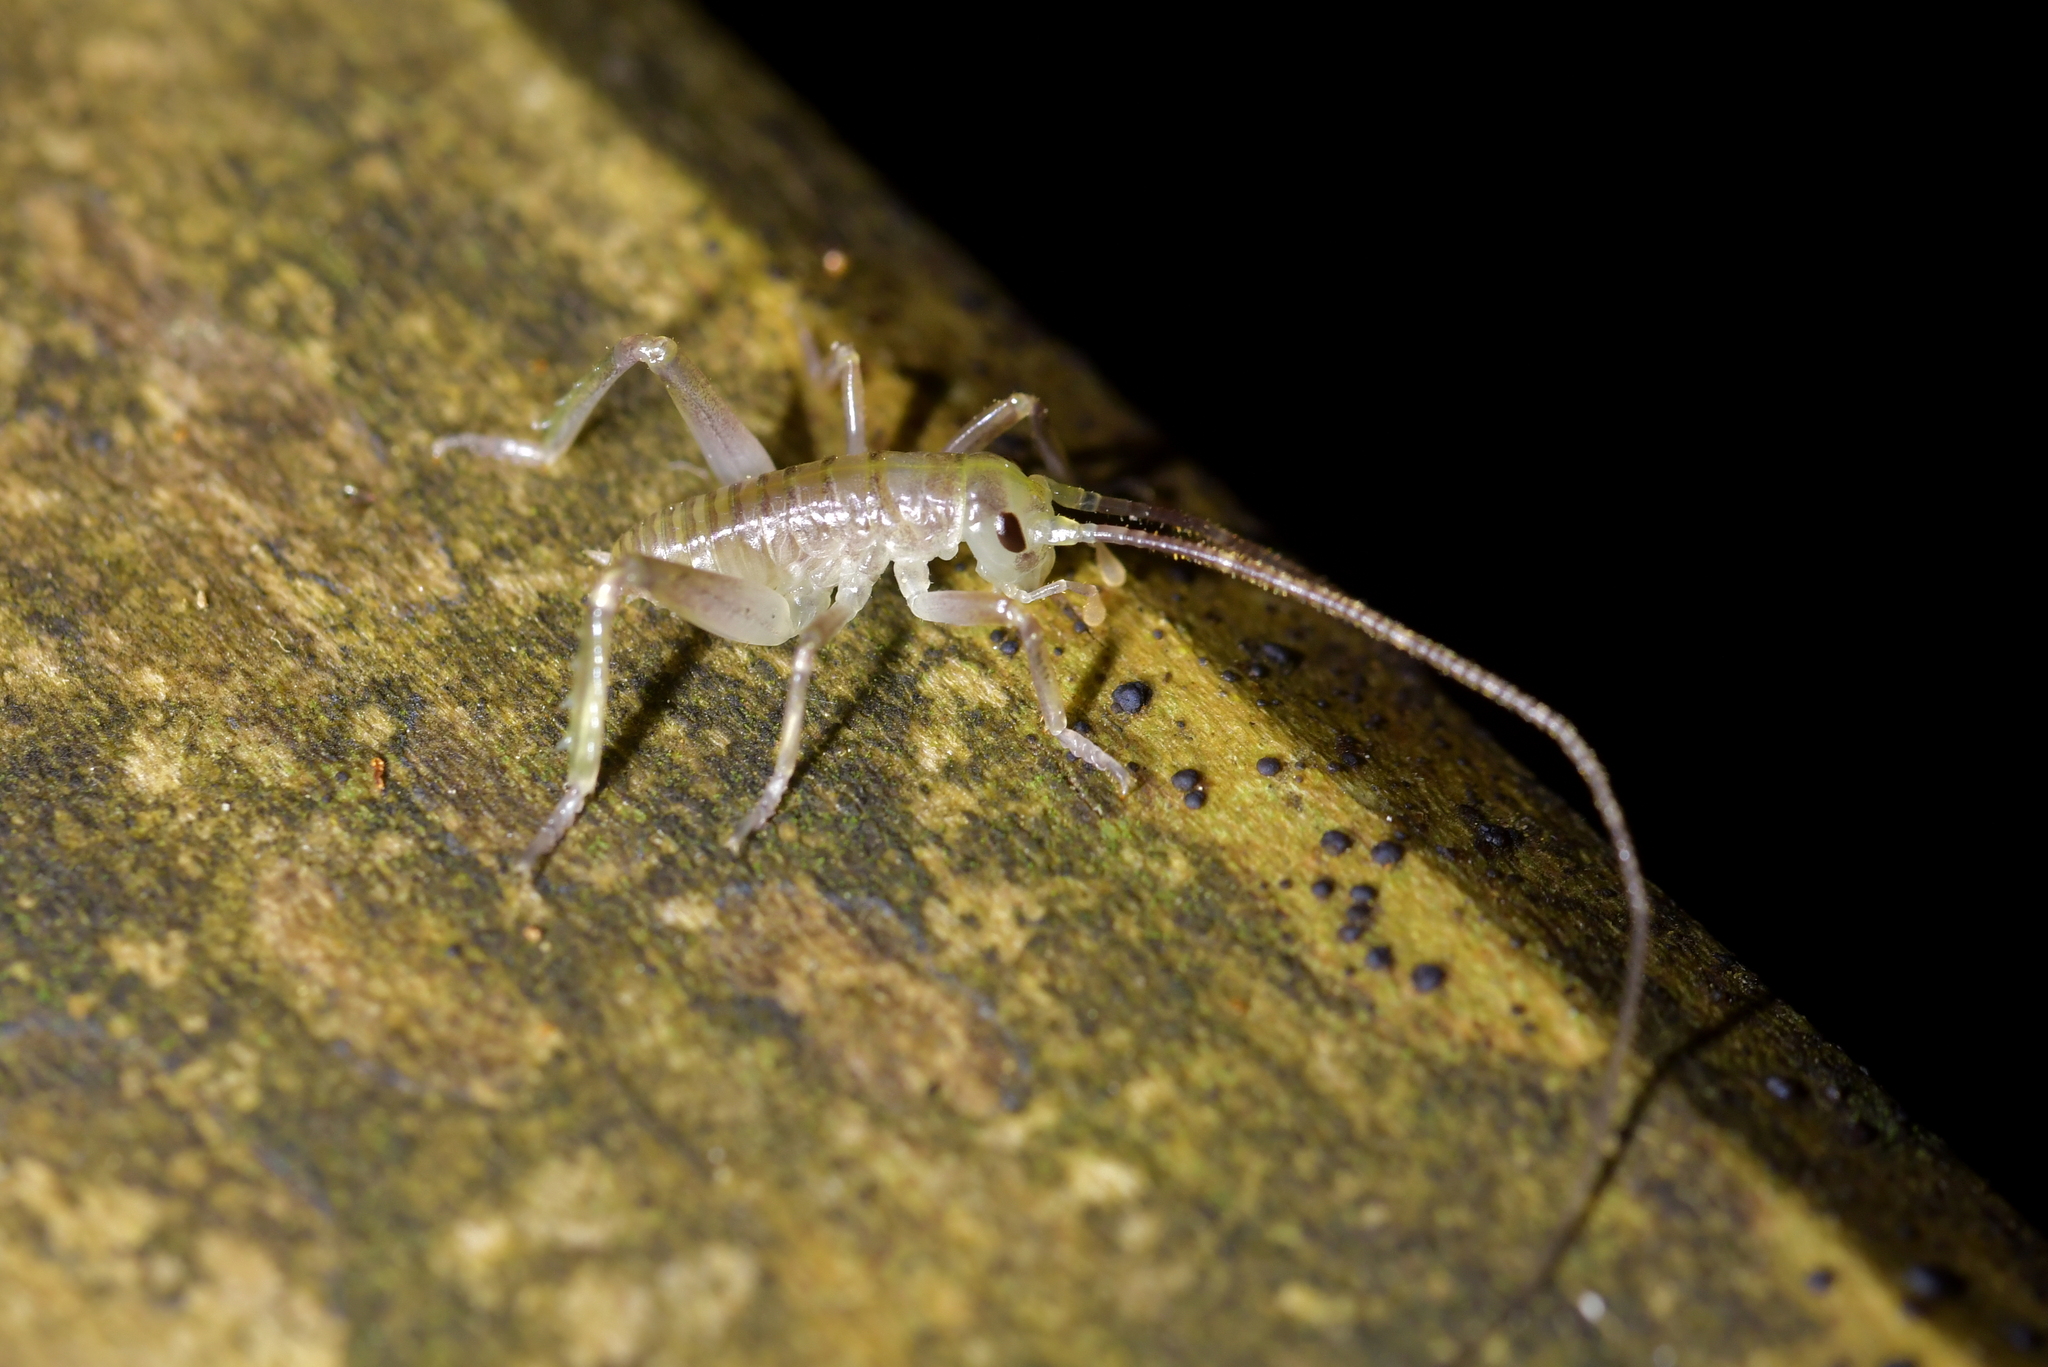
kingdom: Animalia
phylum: Arthropoda
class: Insecta
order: Orthoptera
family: Anostostomatidae
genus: Hemideina
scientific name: Hemideina crassidens
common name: Wellington tree weta
